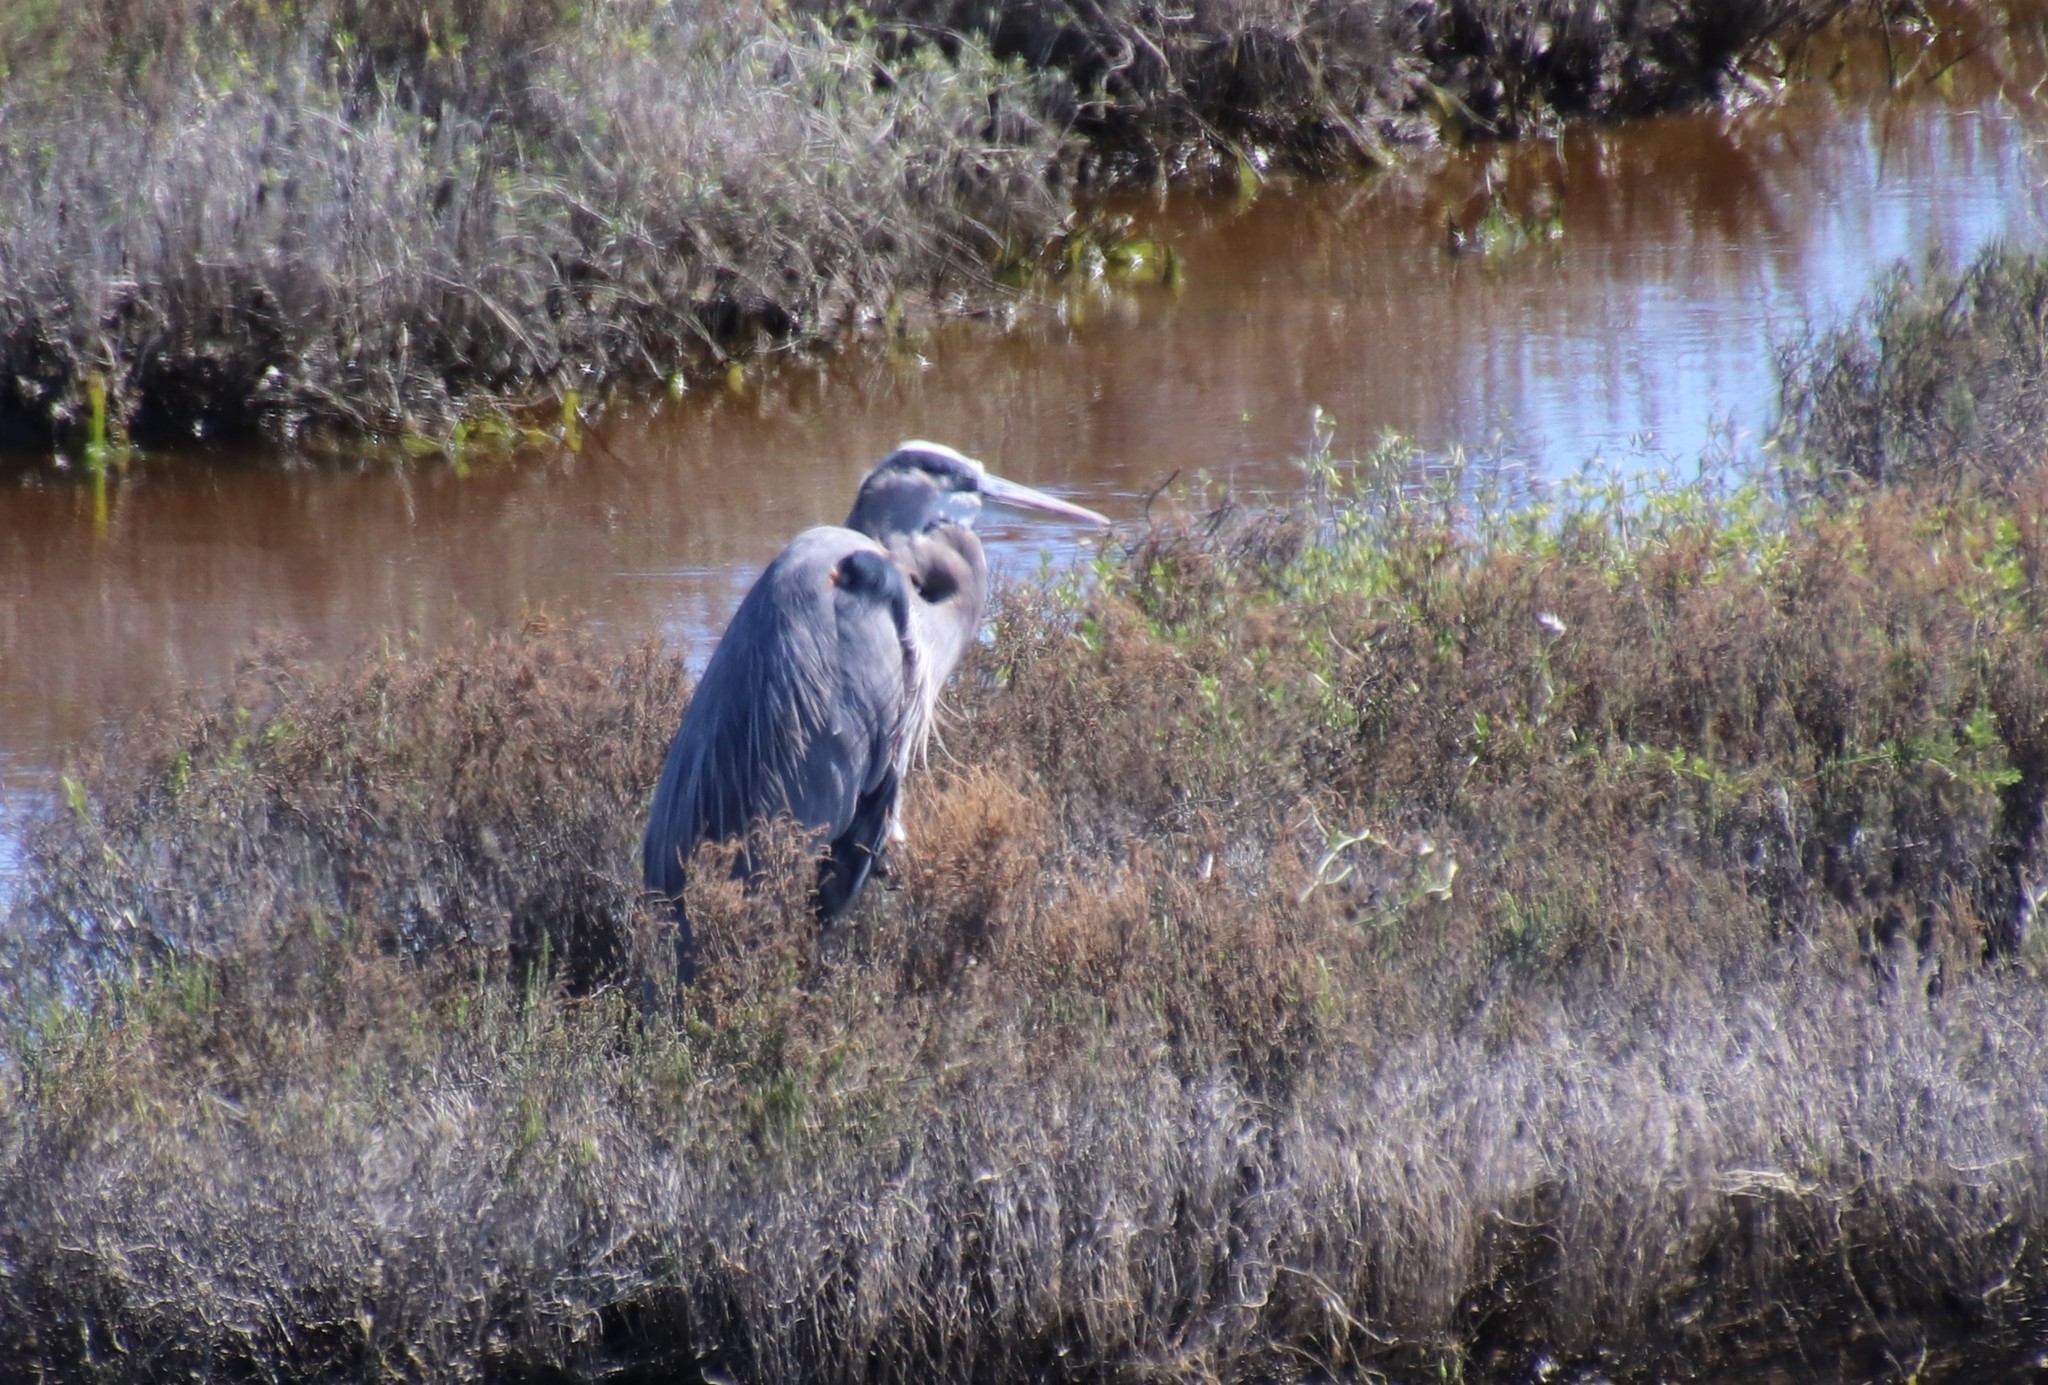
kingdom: Animalia
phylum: Chordata
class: Aves
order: Pelecaniformes
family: Ardeidae
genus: Ardea
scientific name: Ardea herodias
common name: Great blue heron
